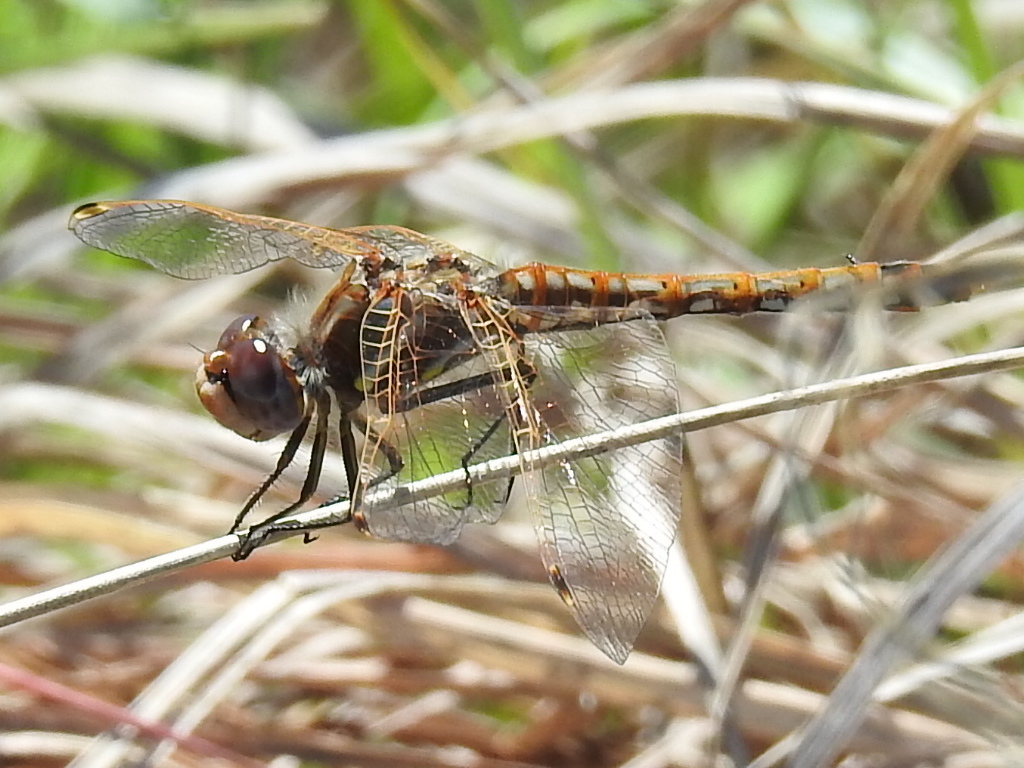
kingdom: Animalia
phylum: Arthropoda
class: Insecta
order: Odonata
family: Libellulidae
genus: Sympetrum
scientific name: Sympetrum corruptum
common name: Variegated meadowhawk
